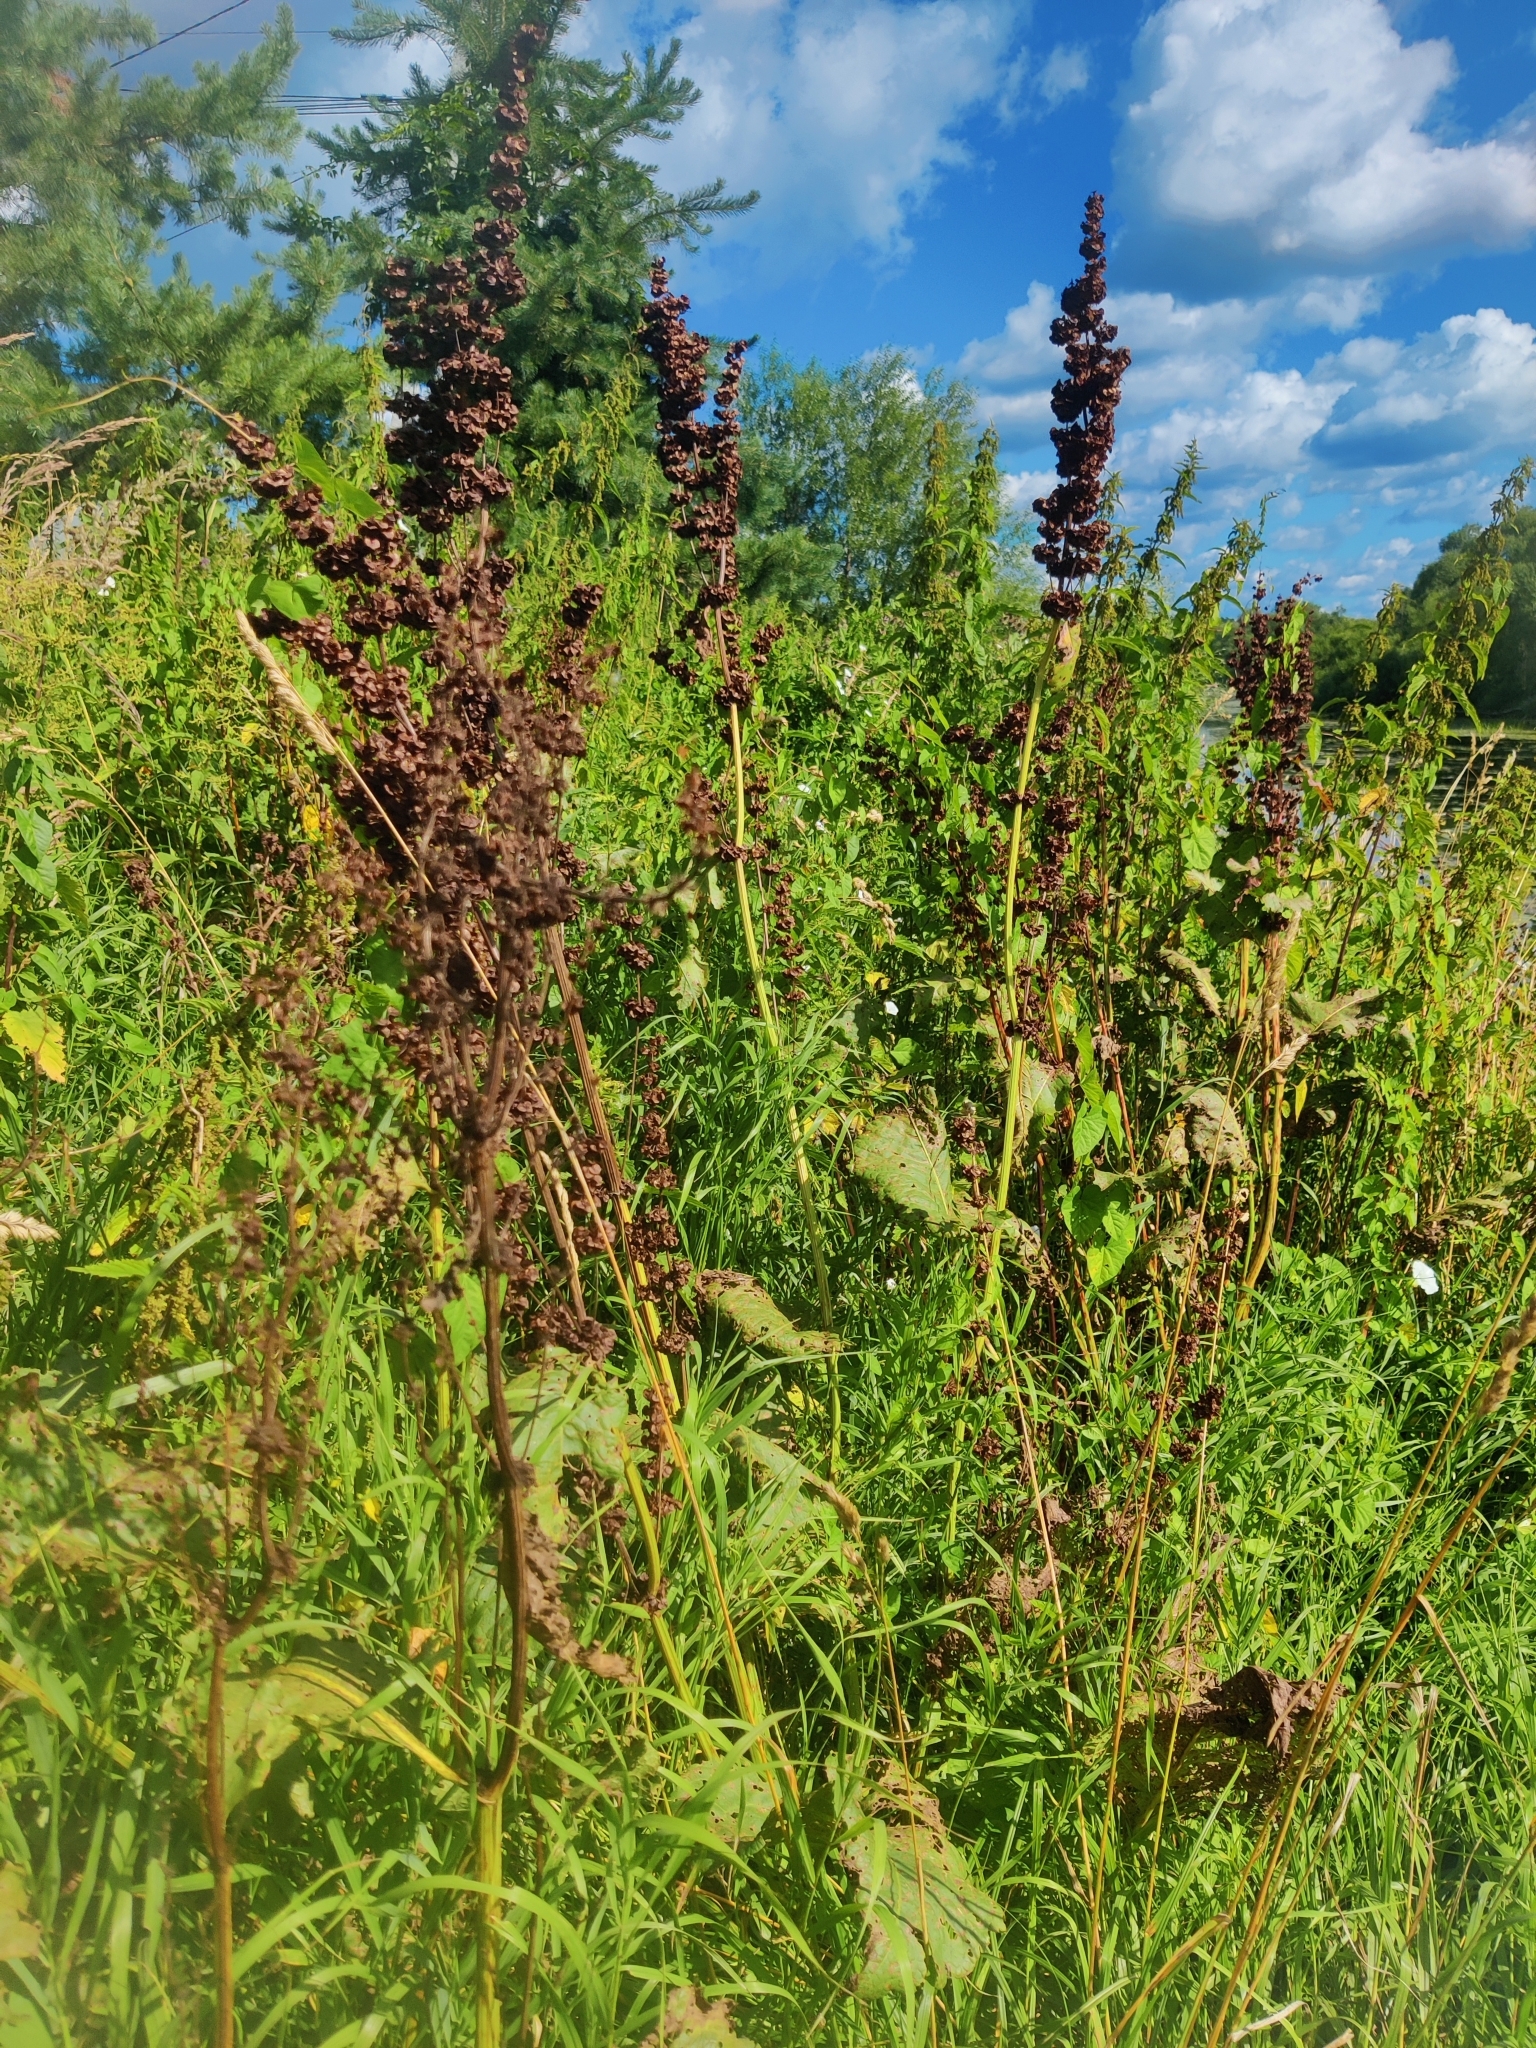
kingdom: Plantae
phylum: Tracheophyta
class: Magnoliopsida
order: Caryophyllales
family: Polygonaceae
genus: Rumex
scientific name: Rumex confertus
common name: Russian dock
